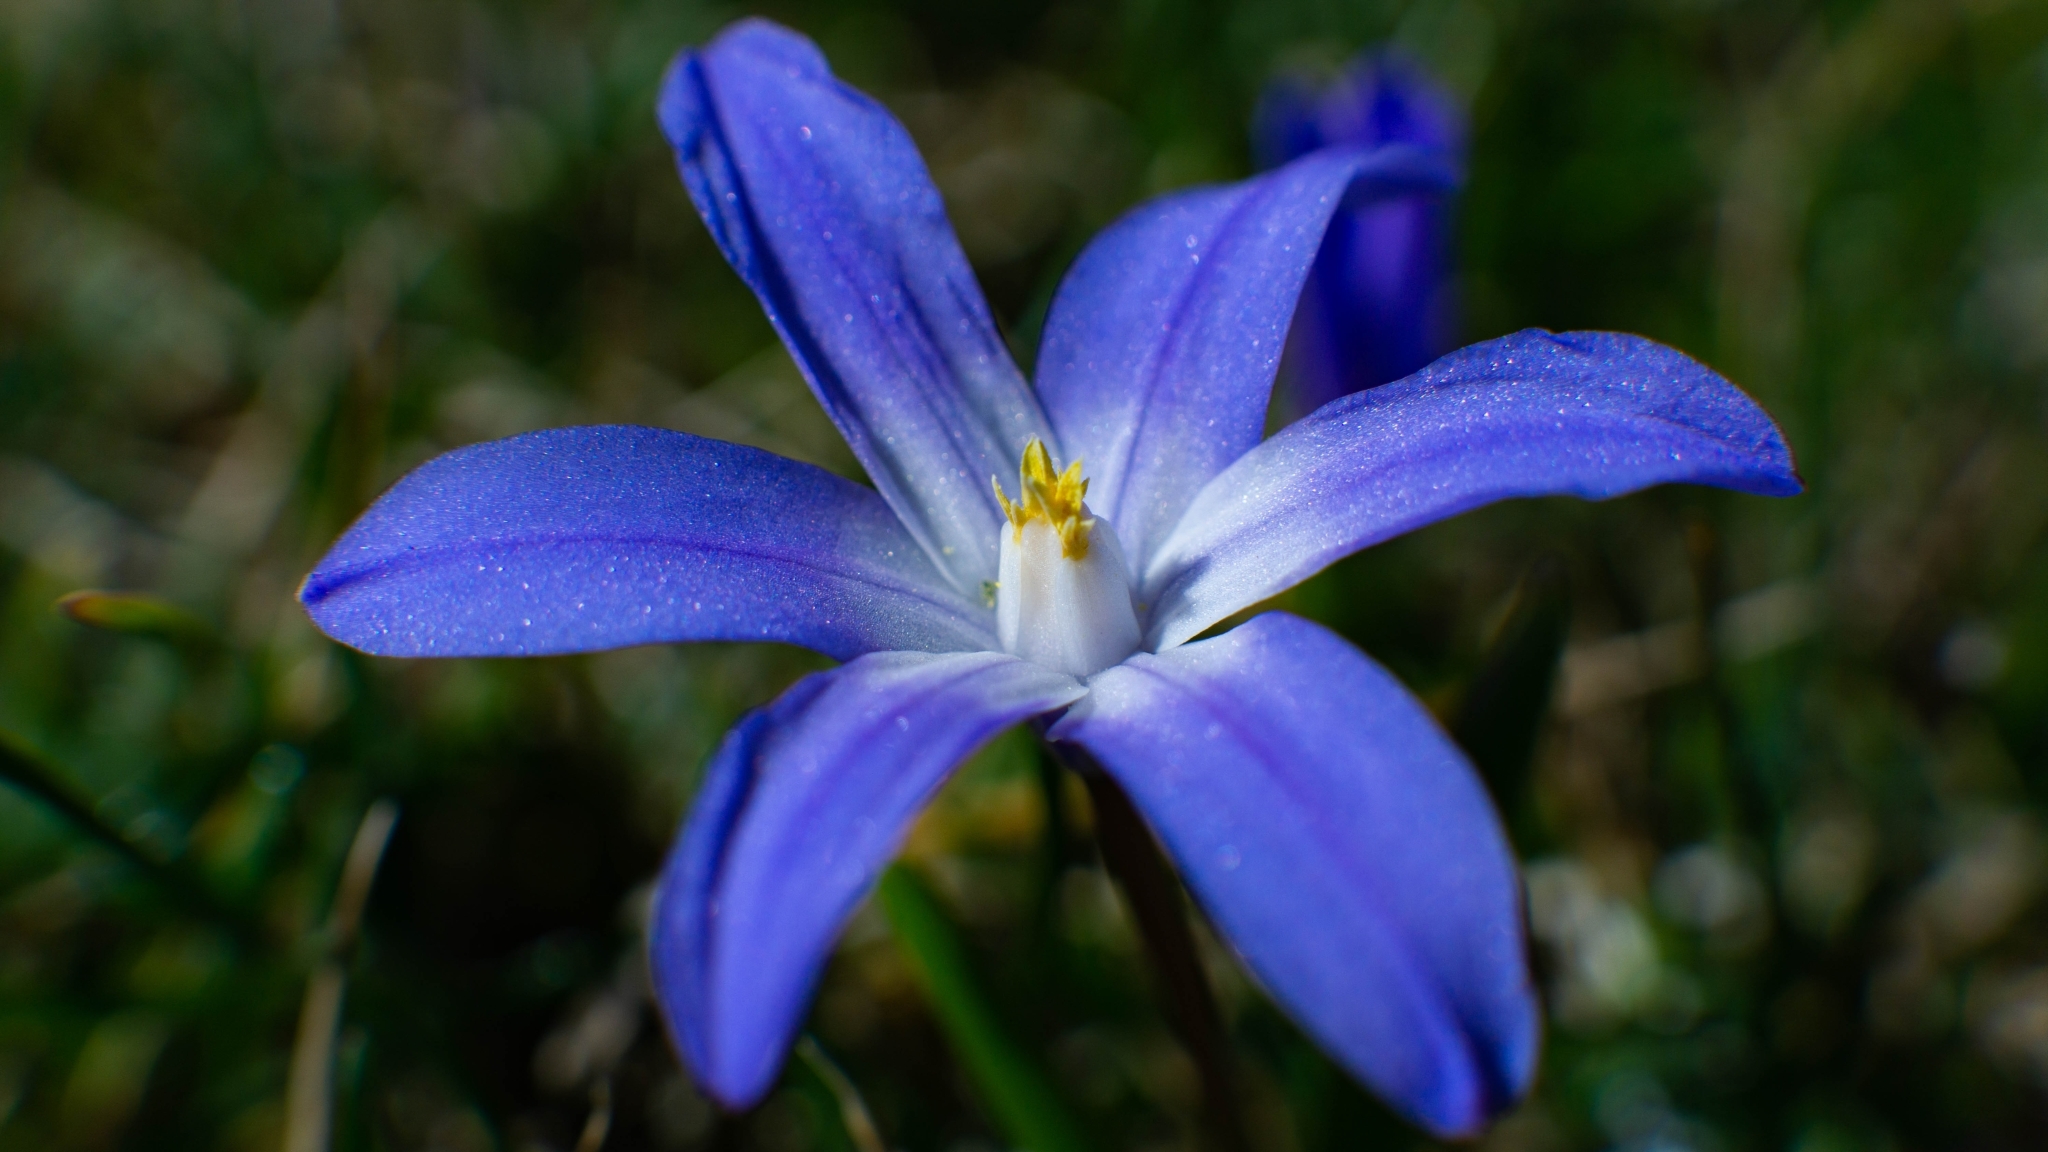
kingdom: Plantae
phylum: Tracheophyta
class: Liliopsida
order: Asparagales
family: Asparagaceae
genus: Scilla
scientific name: Scilla luciliae
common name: Boissier's glory-of-the-snow
